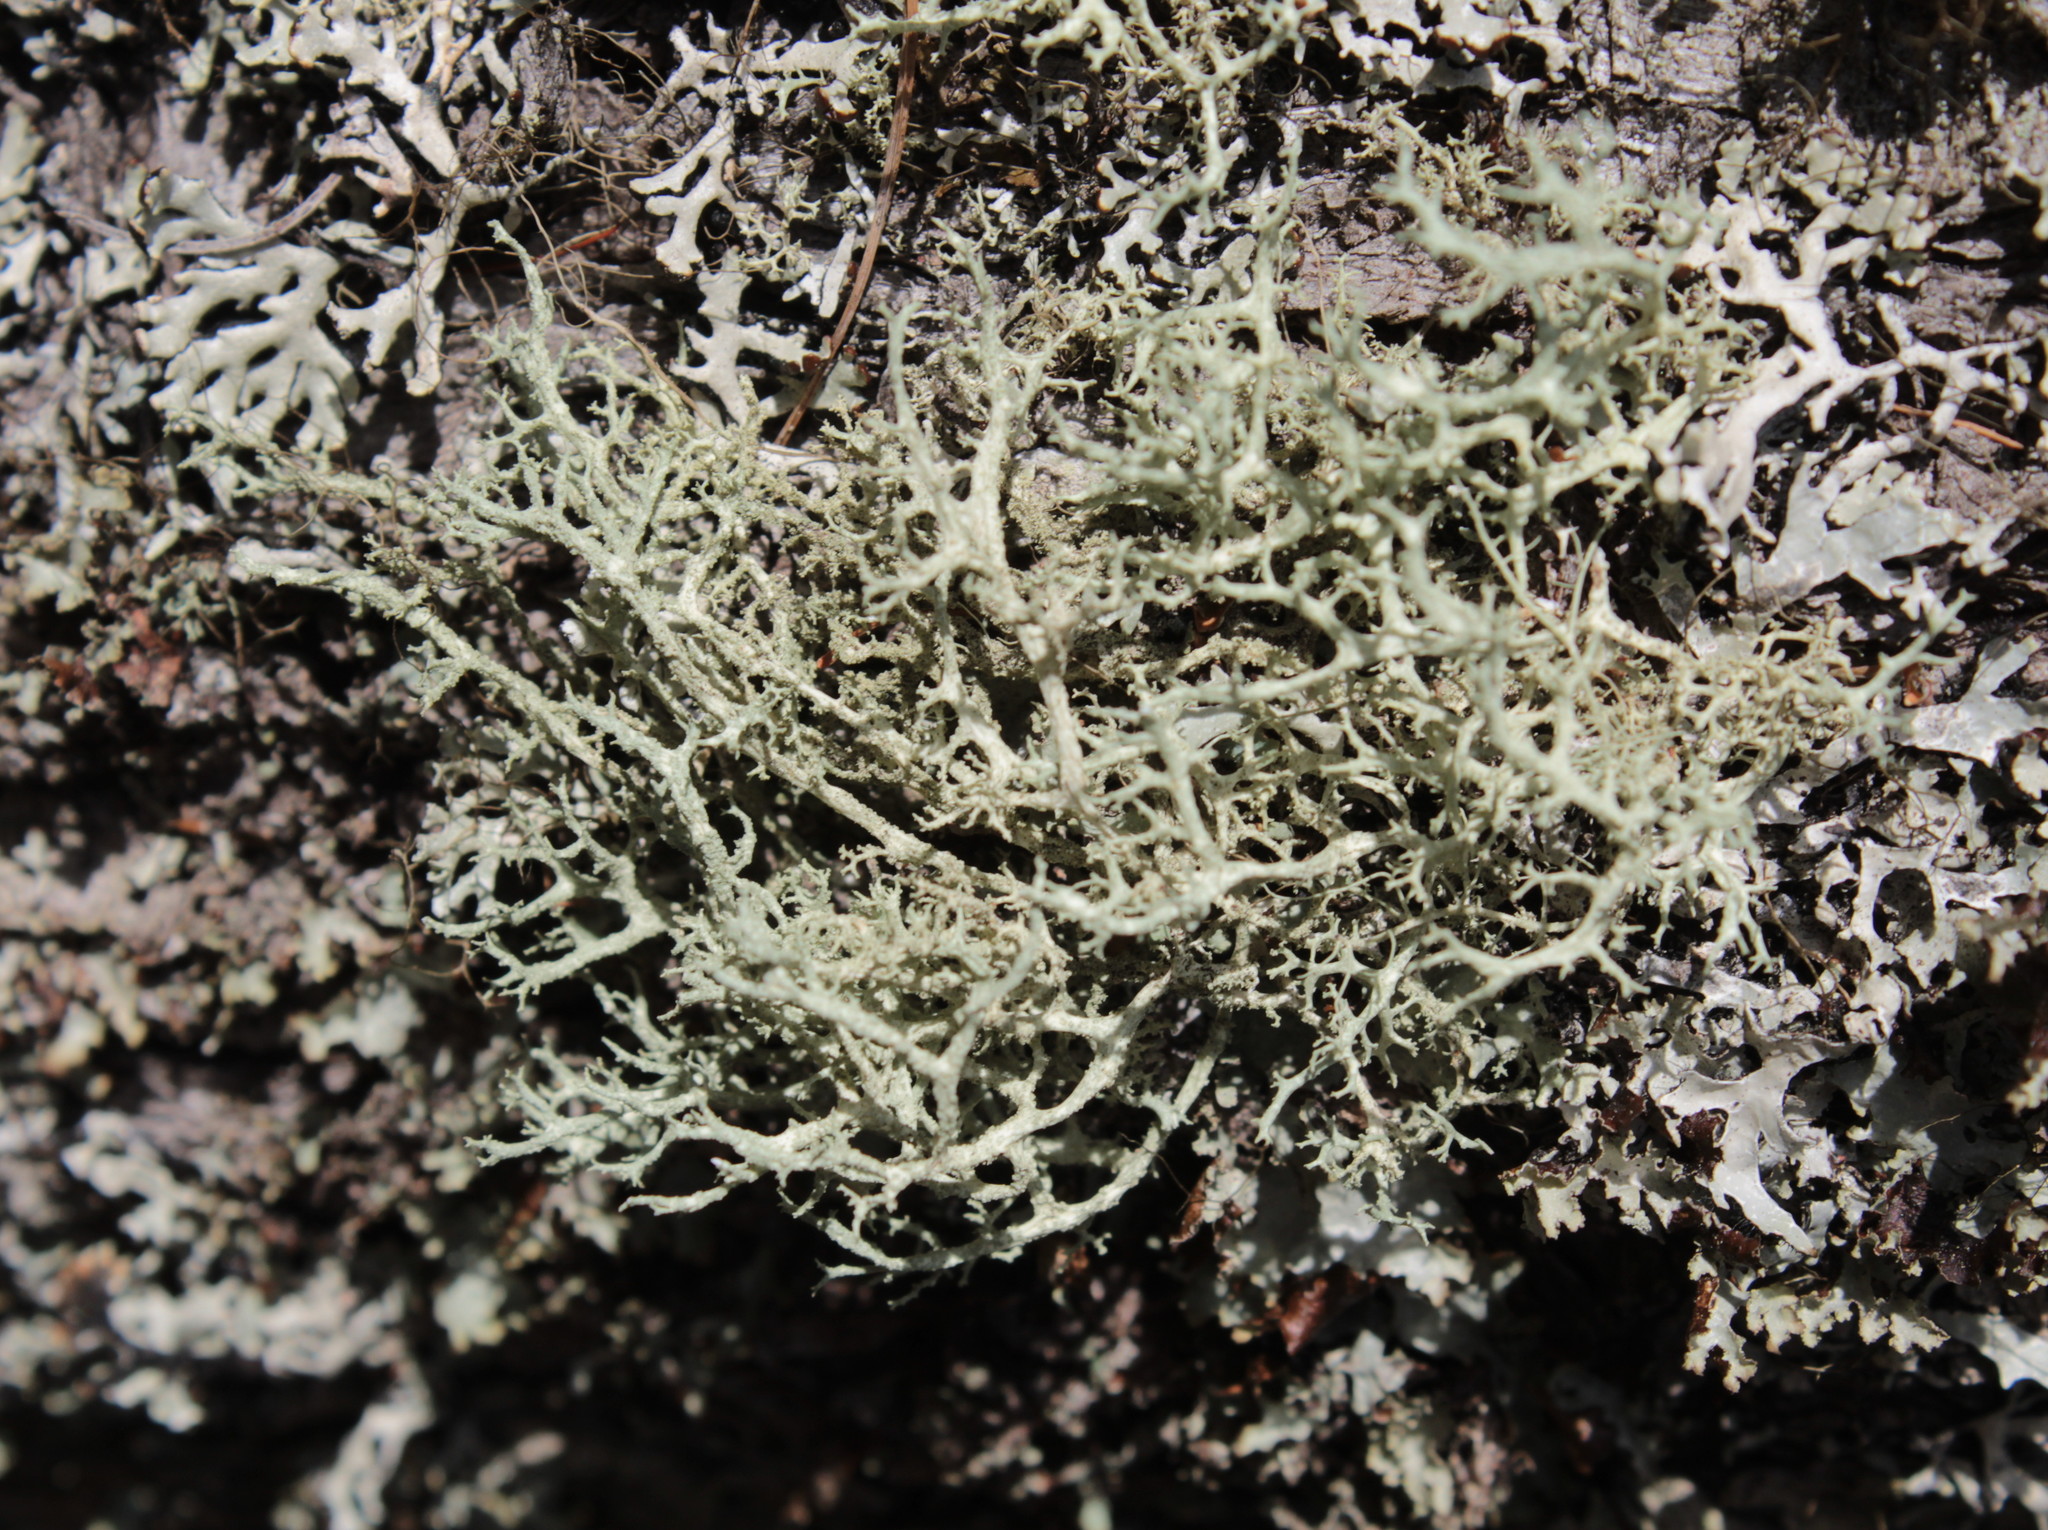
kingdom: Fungi
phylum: Ascomycota
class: Lecanoromycetes
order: Lecanorales
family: Parmeliaceae
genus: Evernia
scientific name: Evernia mesomorpha
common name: Boreal oak moss lichen
